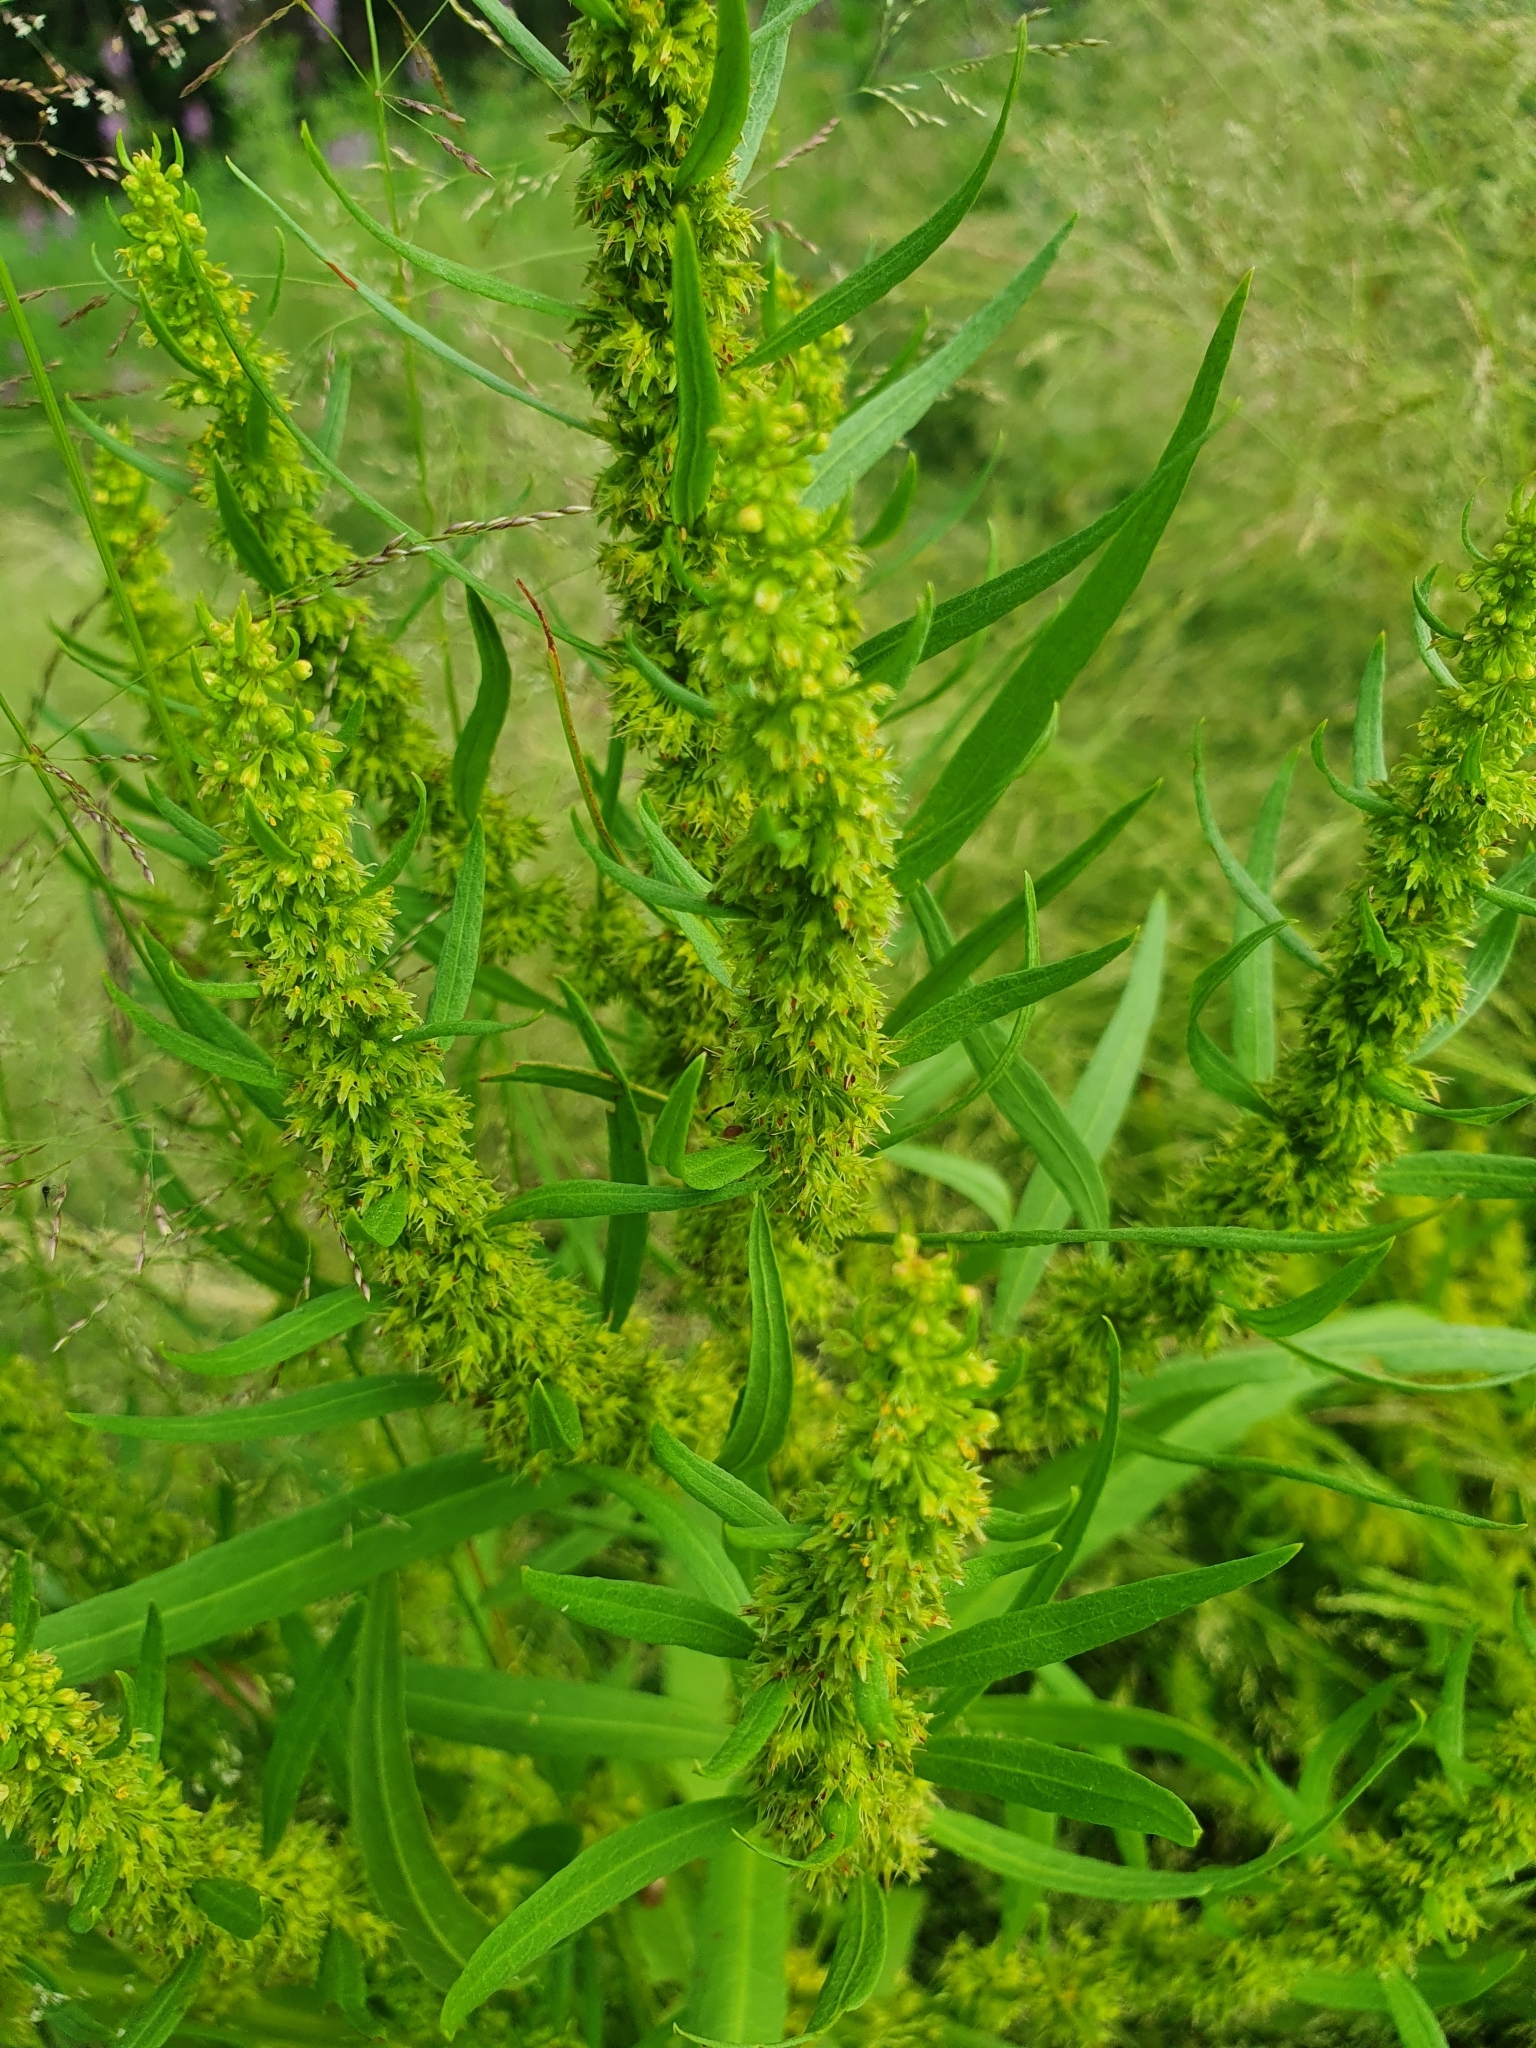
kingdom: Plantae
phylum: Tracheophyta
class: Magnoliopsida
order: Caryophyllales
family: Polygonaceae
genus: Rumex
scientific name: Rumex maritimus
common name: Golden dock
